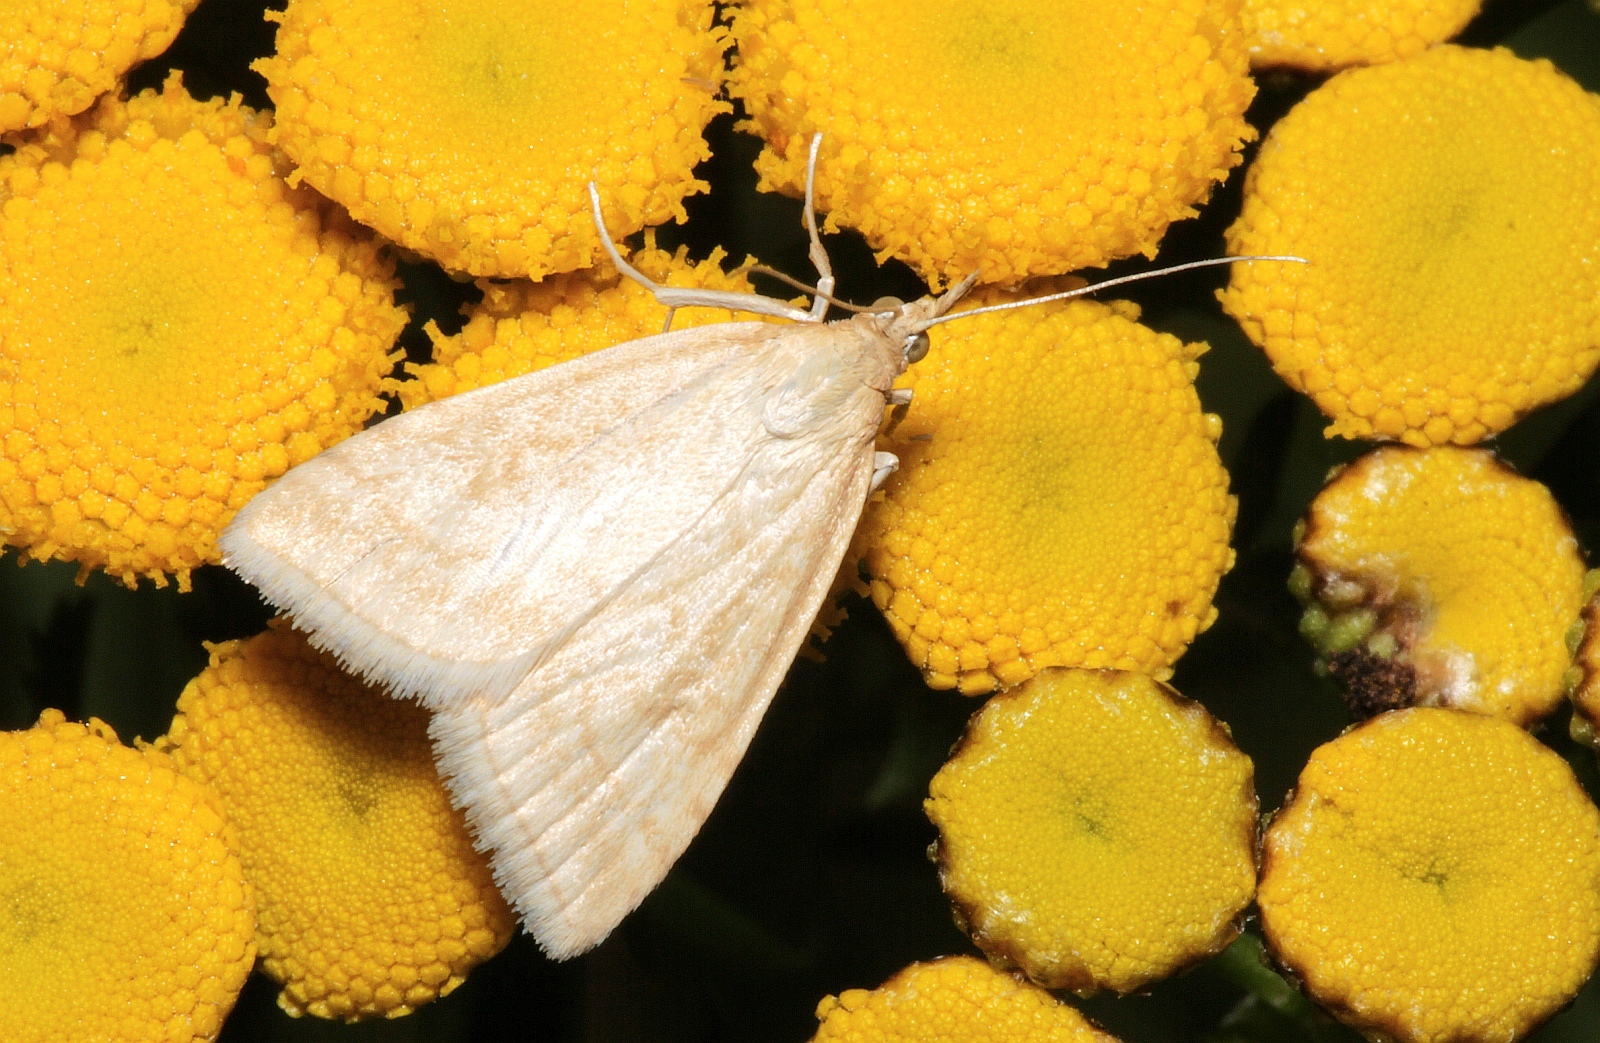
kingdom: Animalia
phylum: Arthropoda
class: Insecta
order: Lepidoptera
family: Crambidae
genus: Udea
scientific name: Udea lutealis
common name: Pale straw pearl
